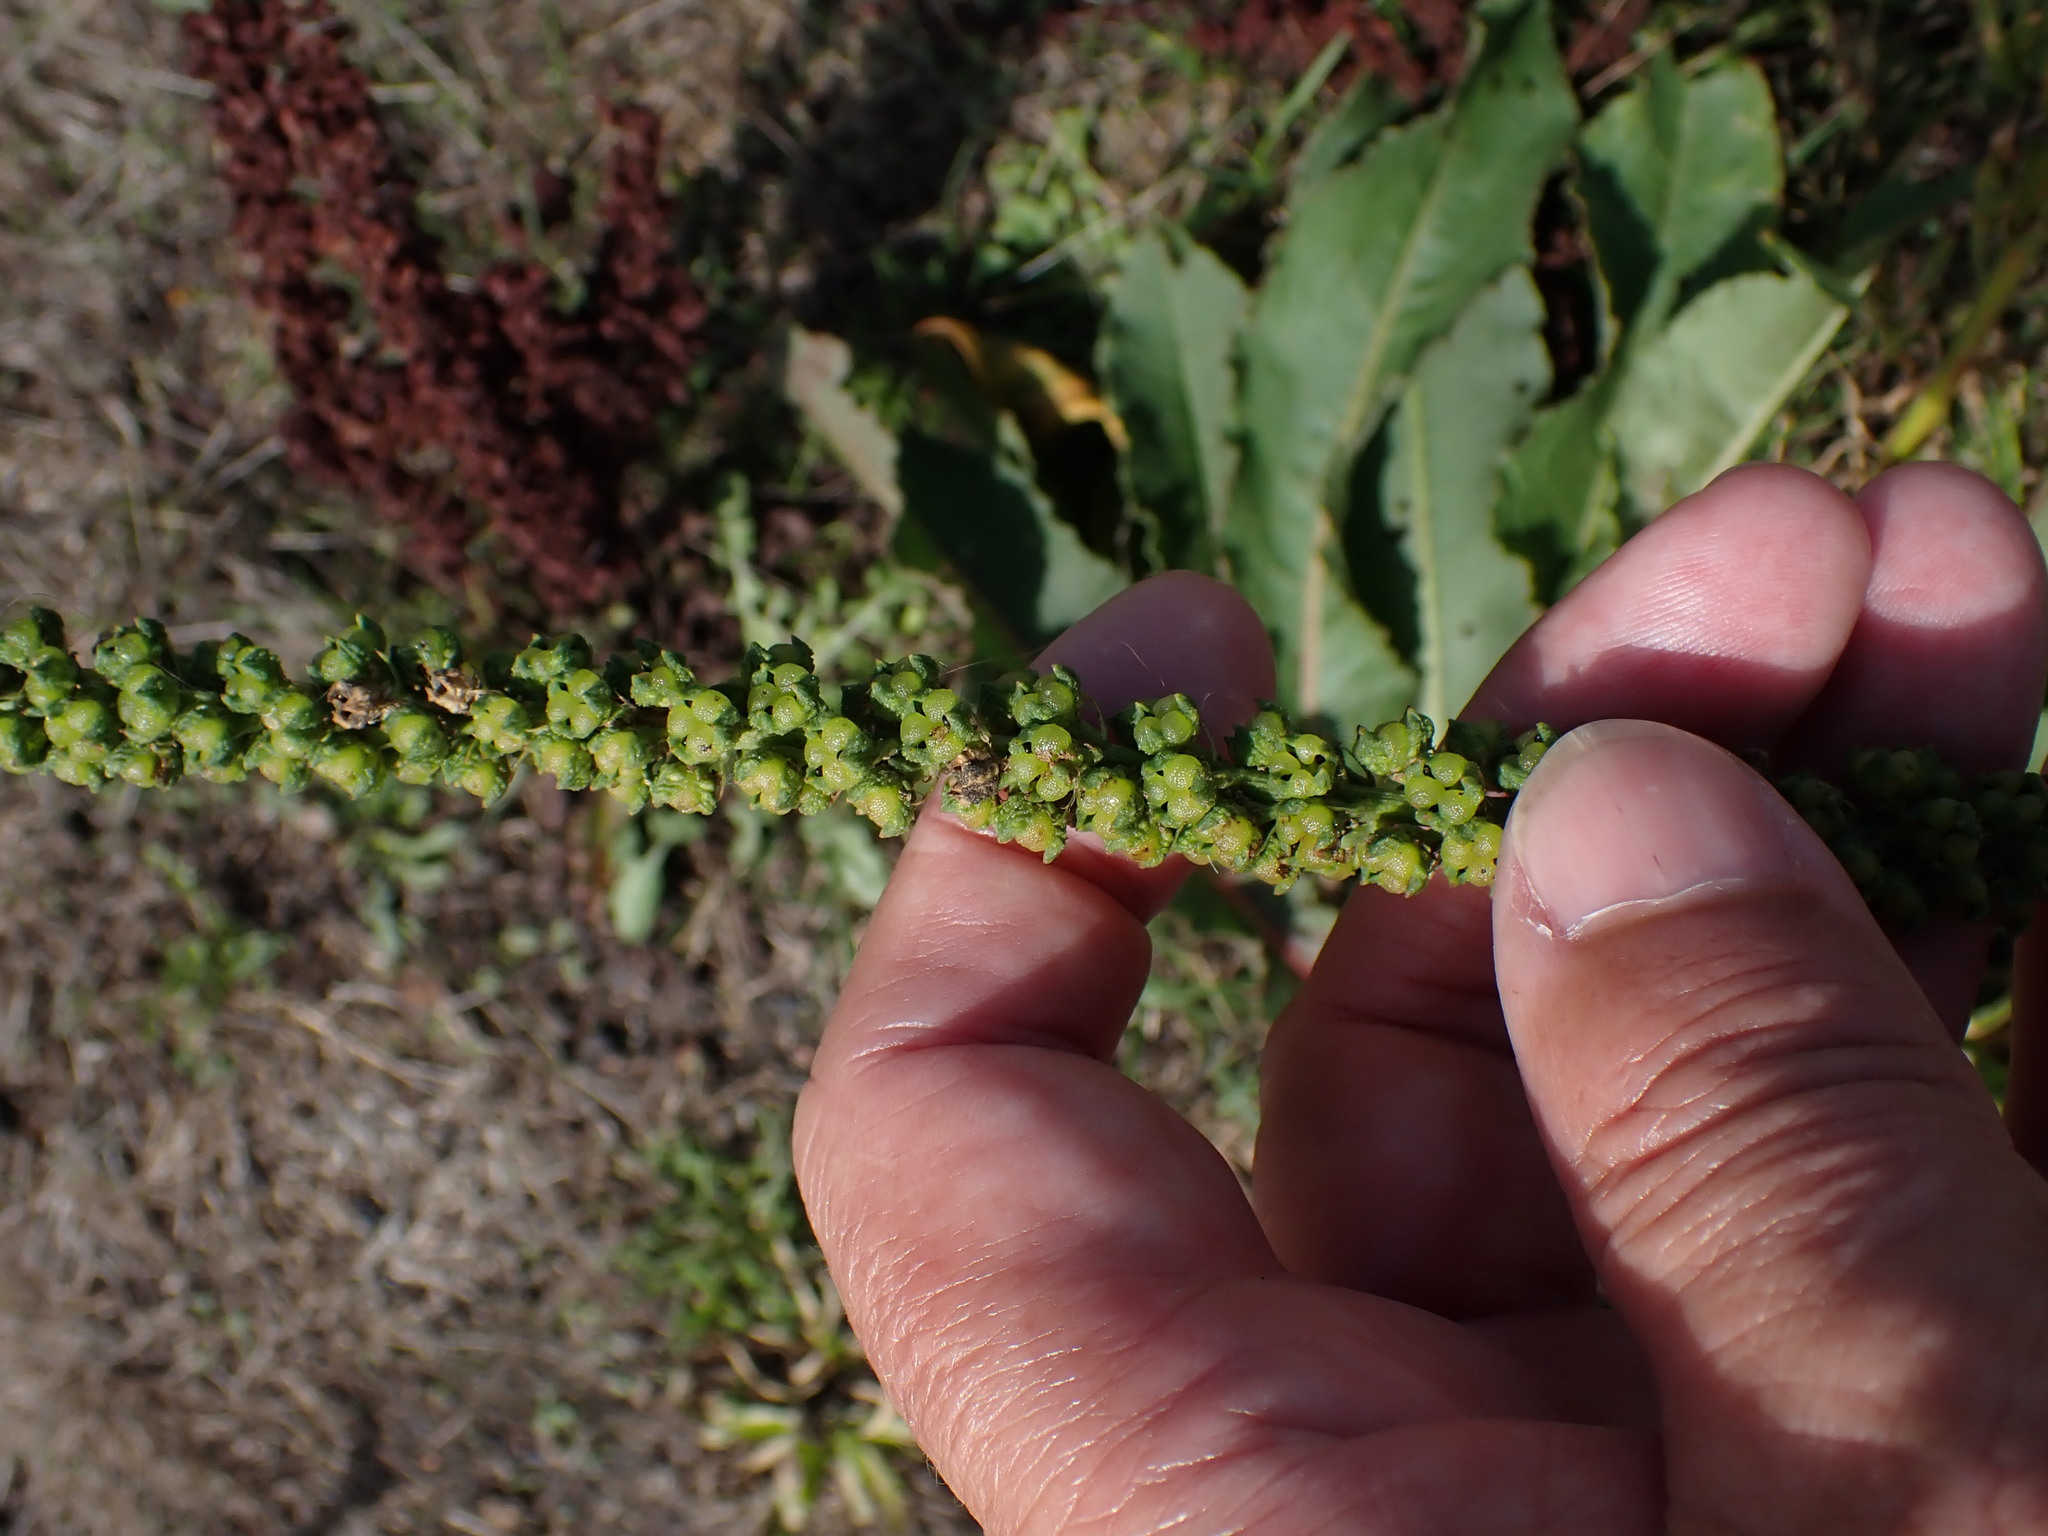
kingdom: Plantae
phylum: Tracheophyta
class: Magnoliopsida
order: Brassicales
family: Resedaceae
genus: Reseda
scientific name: Reseda luteola
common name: Weld
